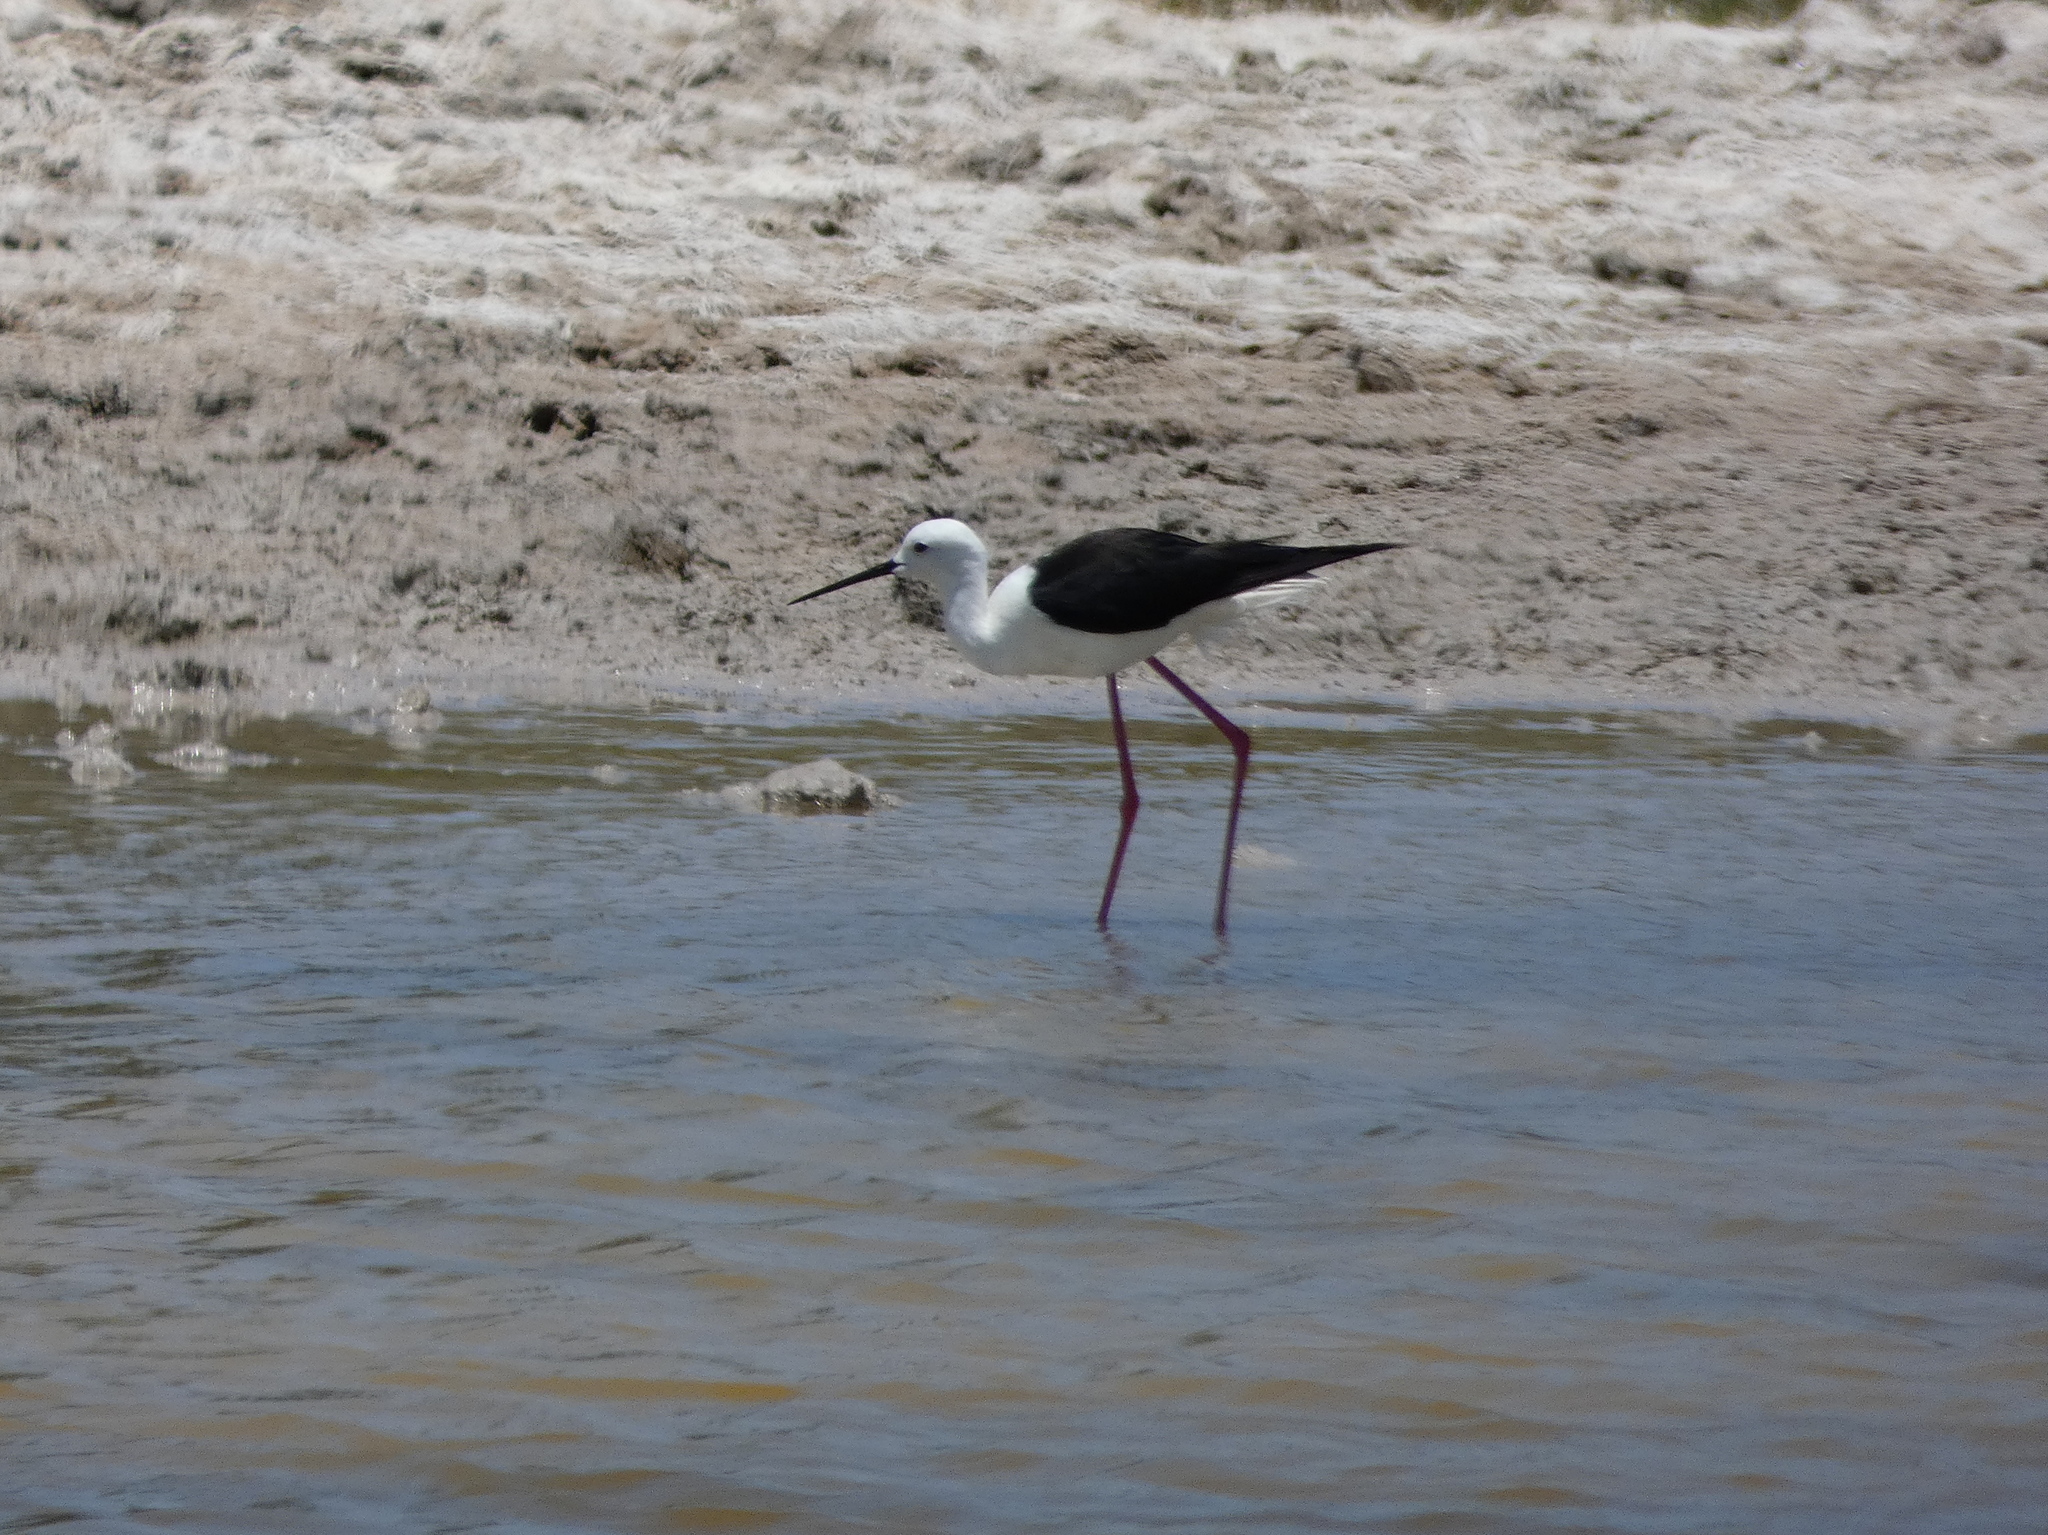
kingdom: Animalia
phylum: Chordata
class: Aves
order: Charadriiformes
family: Recurvirostridae
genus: Himantopus
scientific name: Himantopus himantopus
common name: Black-winged stilt
